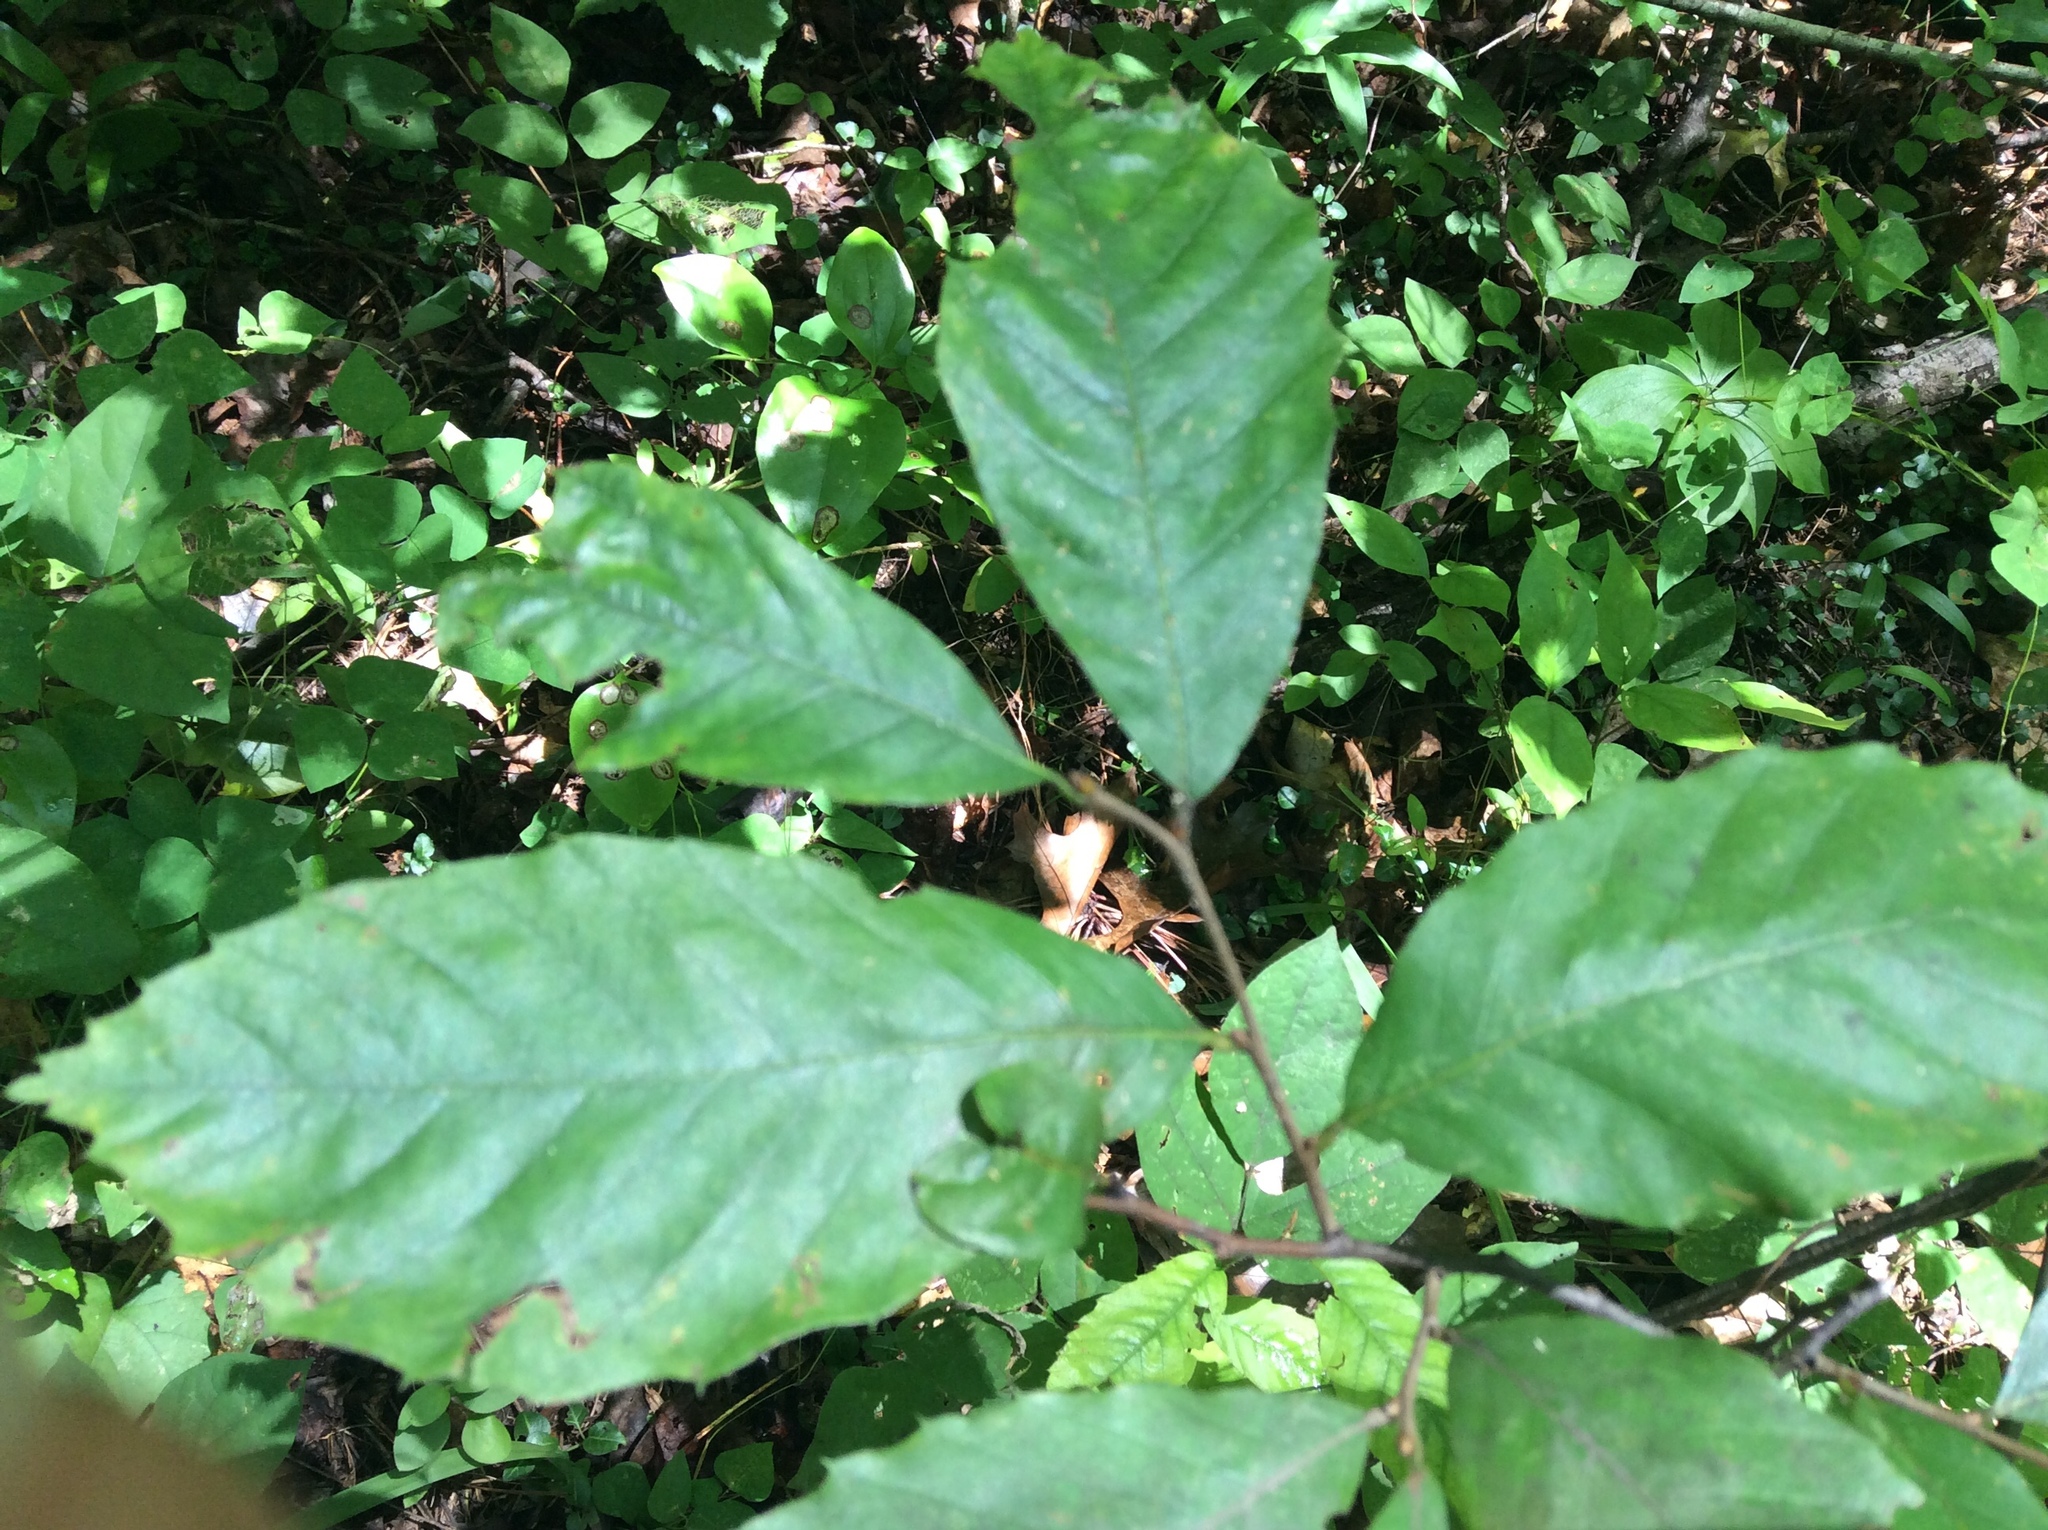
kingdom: Plantae
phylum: Tracheophyta
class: Magnoliopsida
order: Fagales
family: Fagaceae
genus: Fagus
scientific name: Fagus grandifolia
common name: American beech
